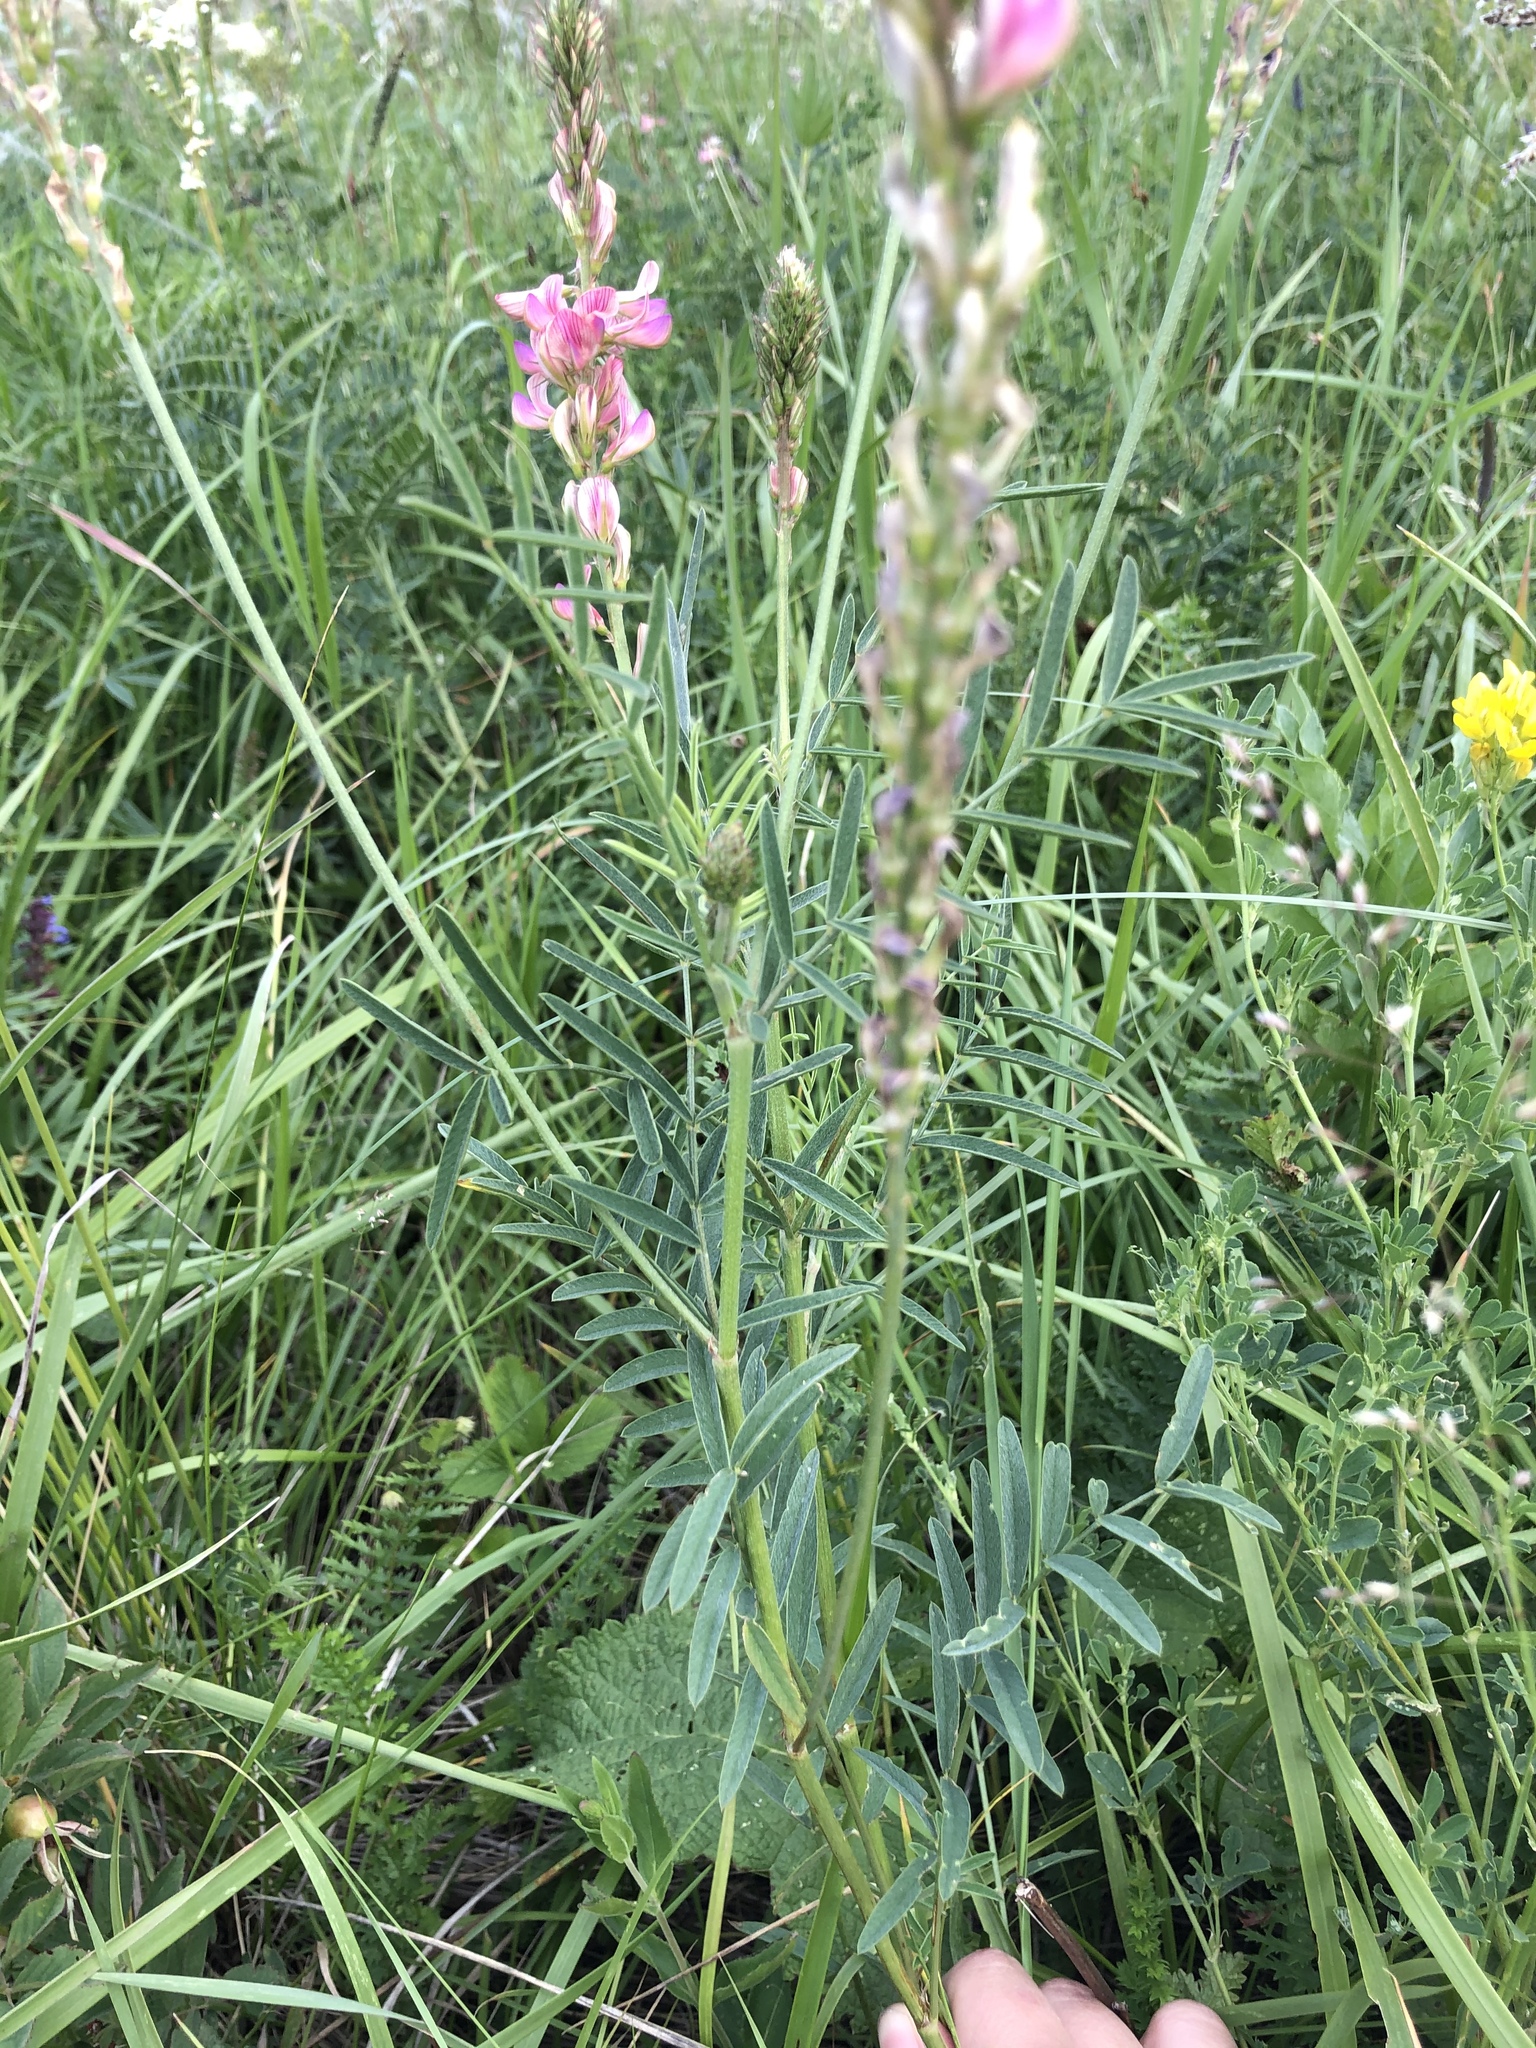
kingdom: Plantae
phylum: Tracheophyta
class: Magnoliopsida
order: Fabales
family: Fabaceae
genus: Onobrychis
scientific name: Onobrychis arenaria
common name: Sand esparcet
